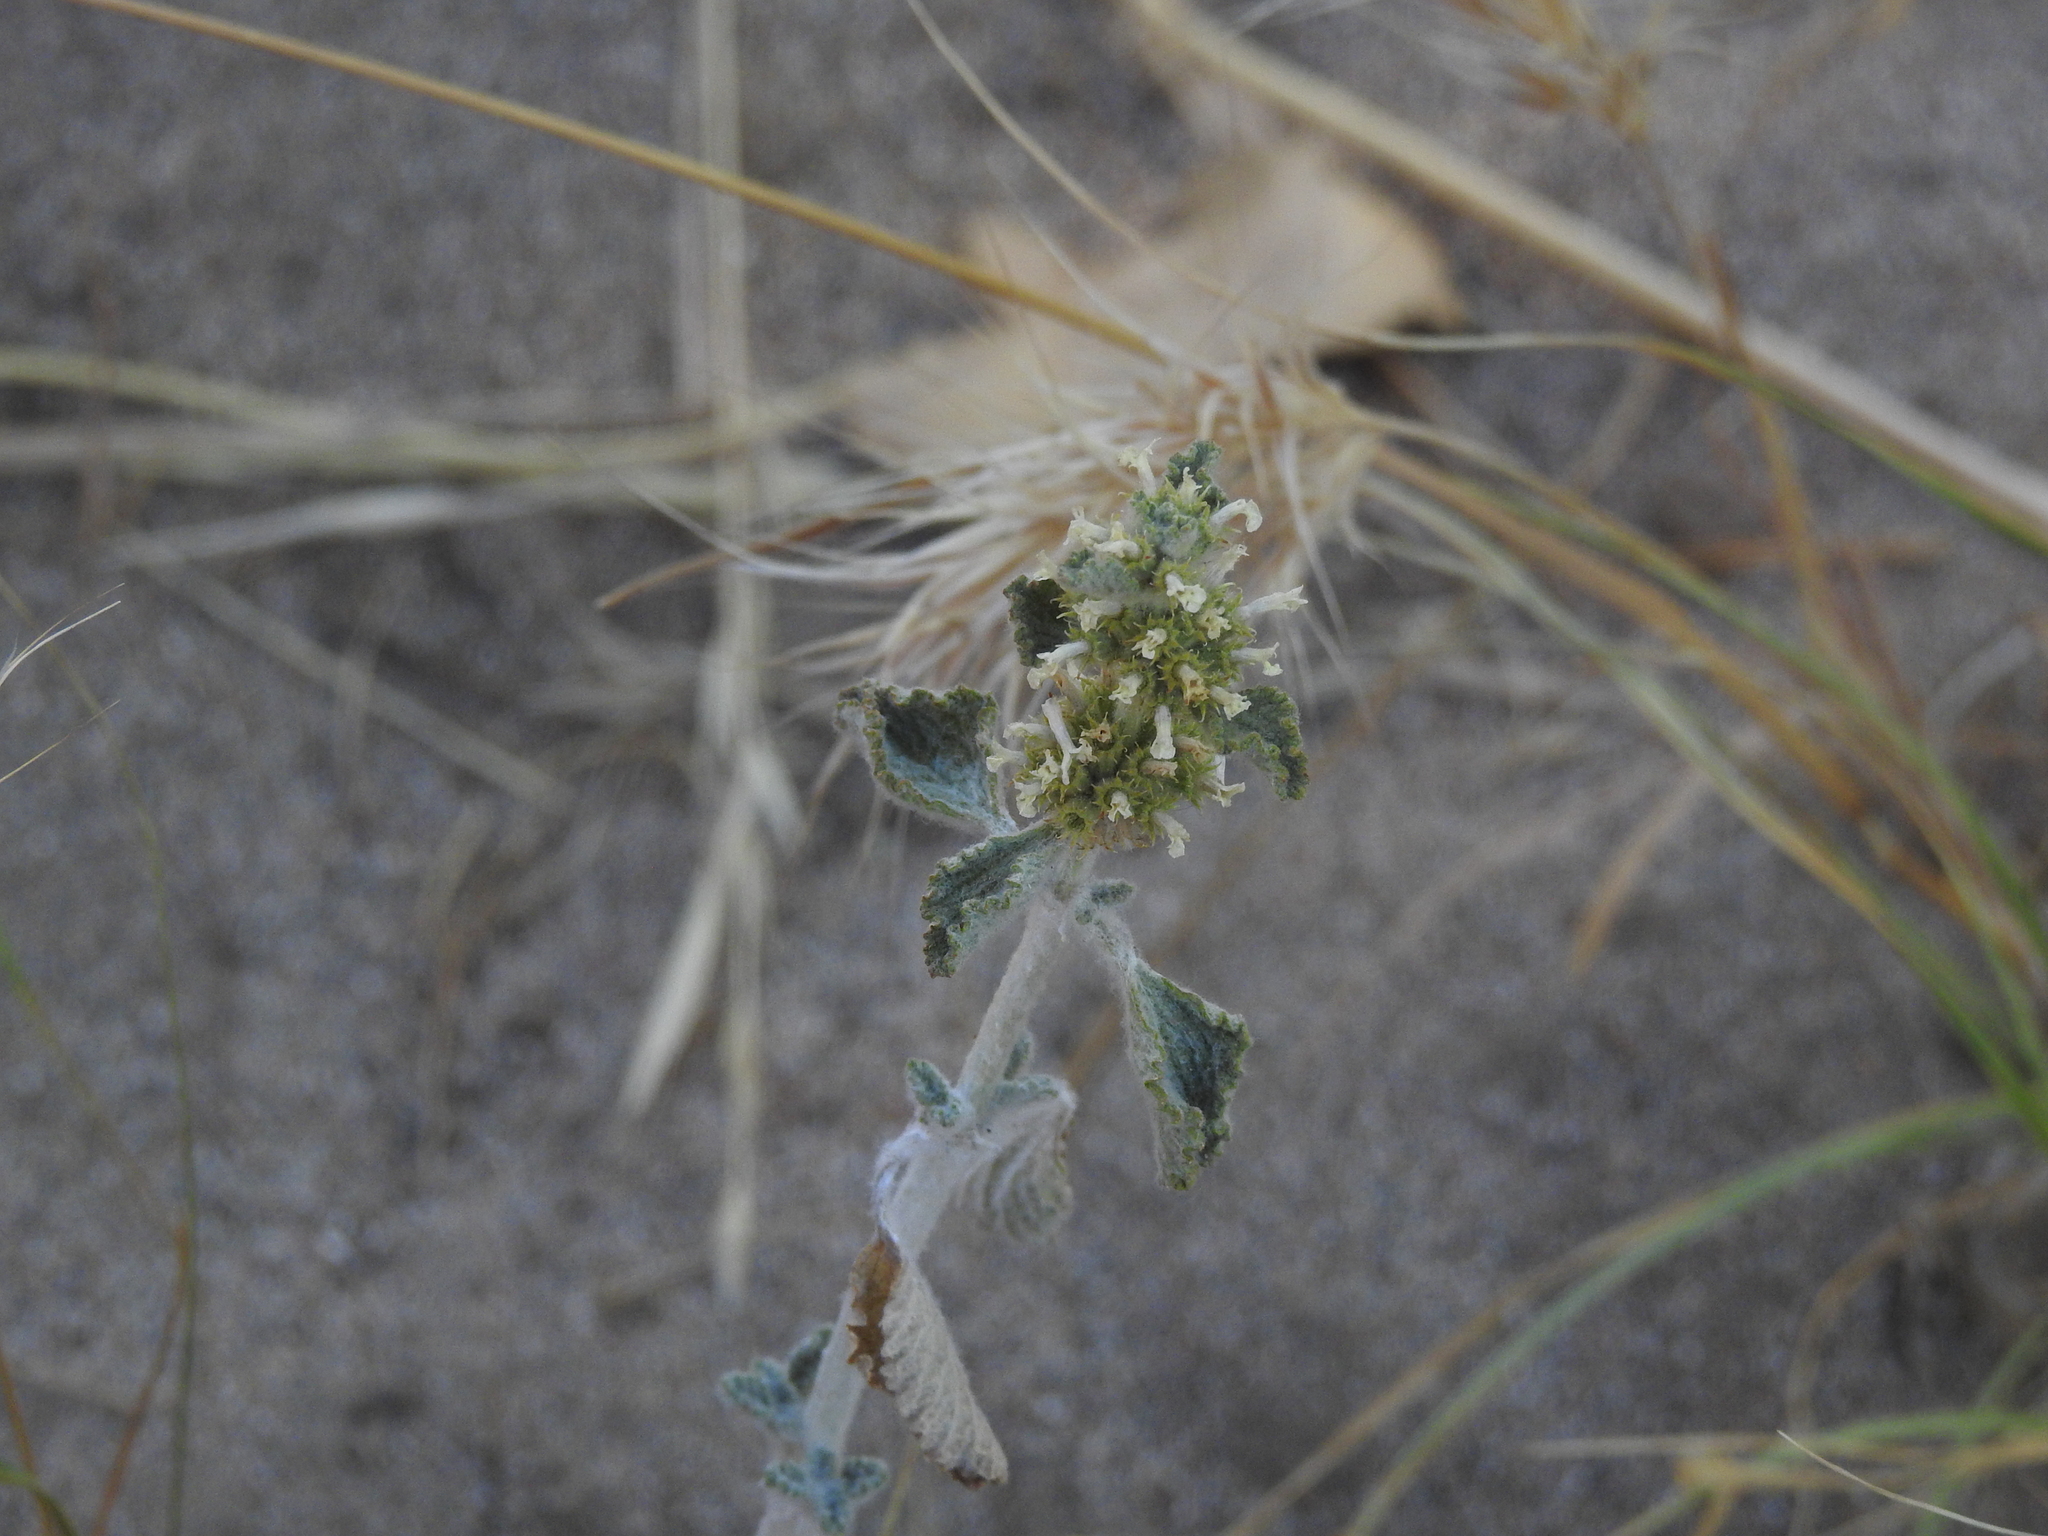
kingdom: Plantae
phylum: Tracheophyta
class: Magnoliopsida
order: Lamiales
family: Lamiaceae
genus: Marrubium
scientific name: Marrubium vulgare
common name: Horehound
